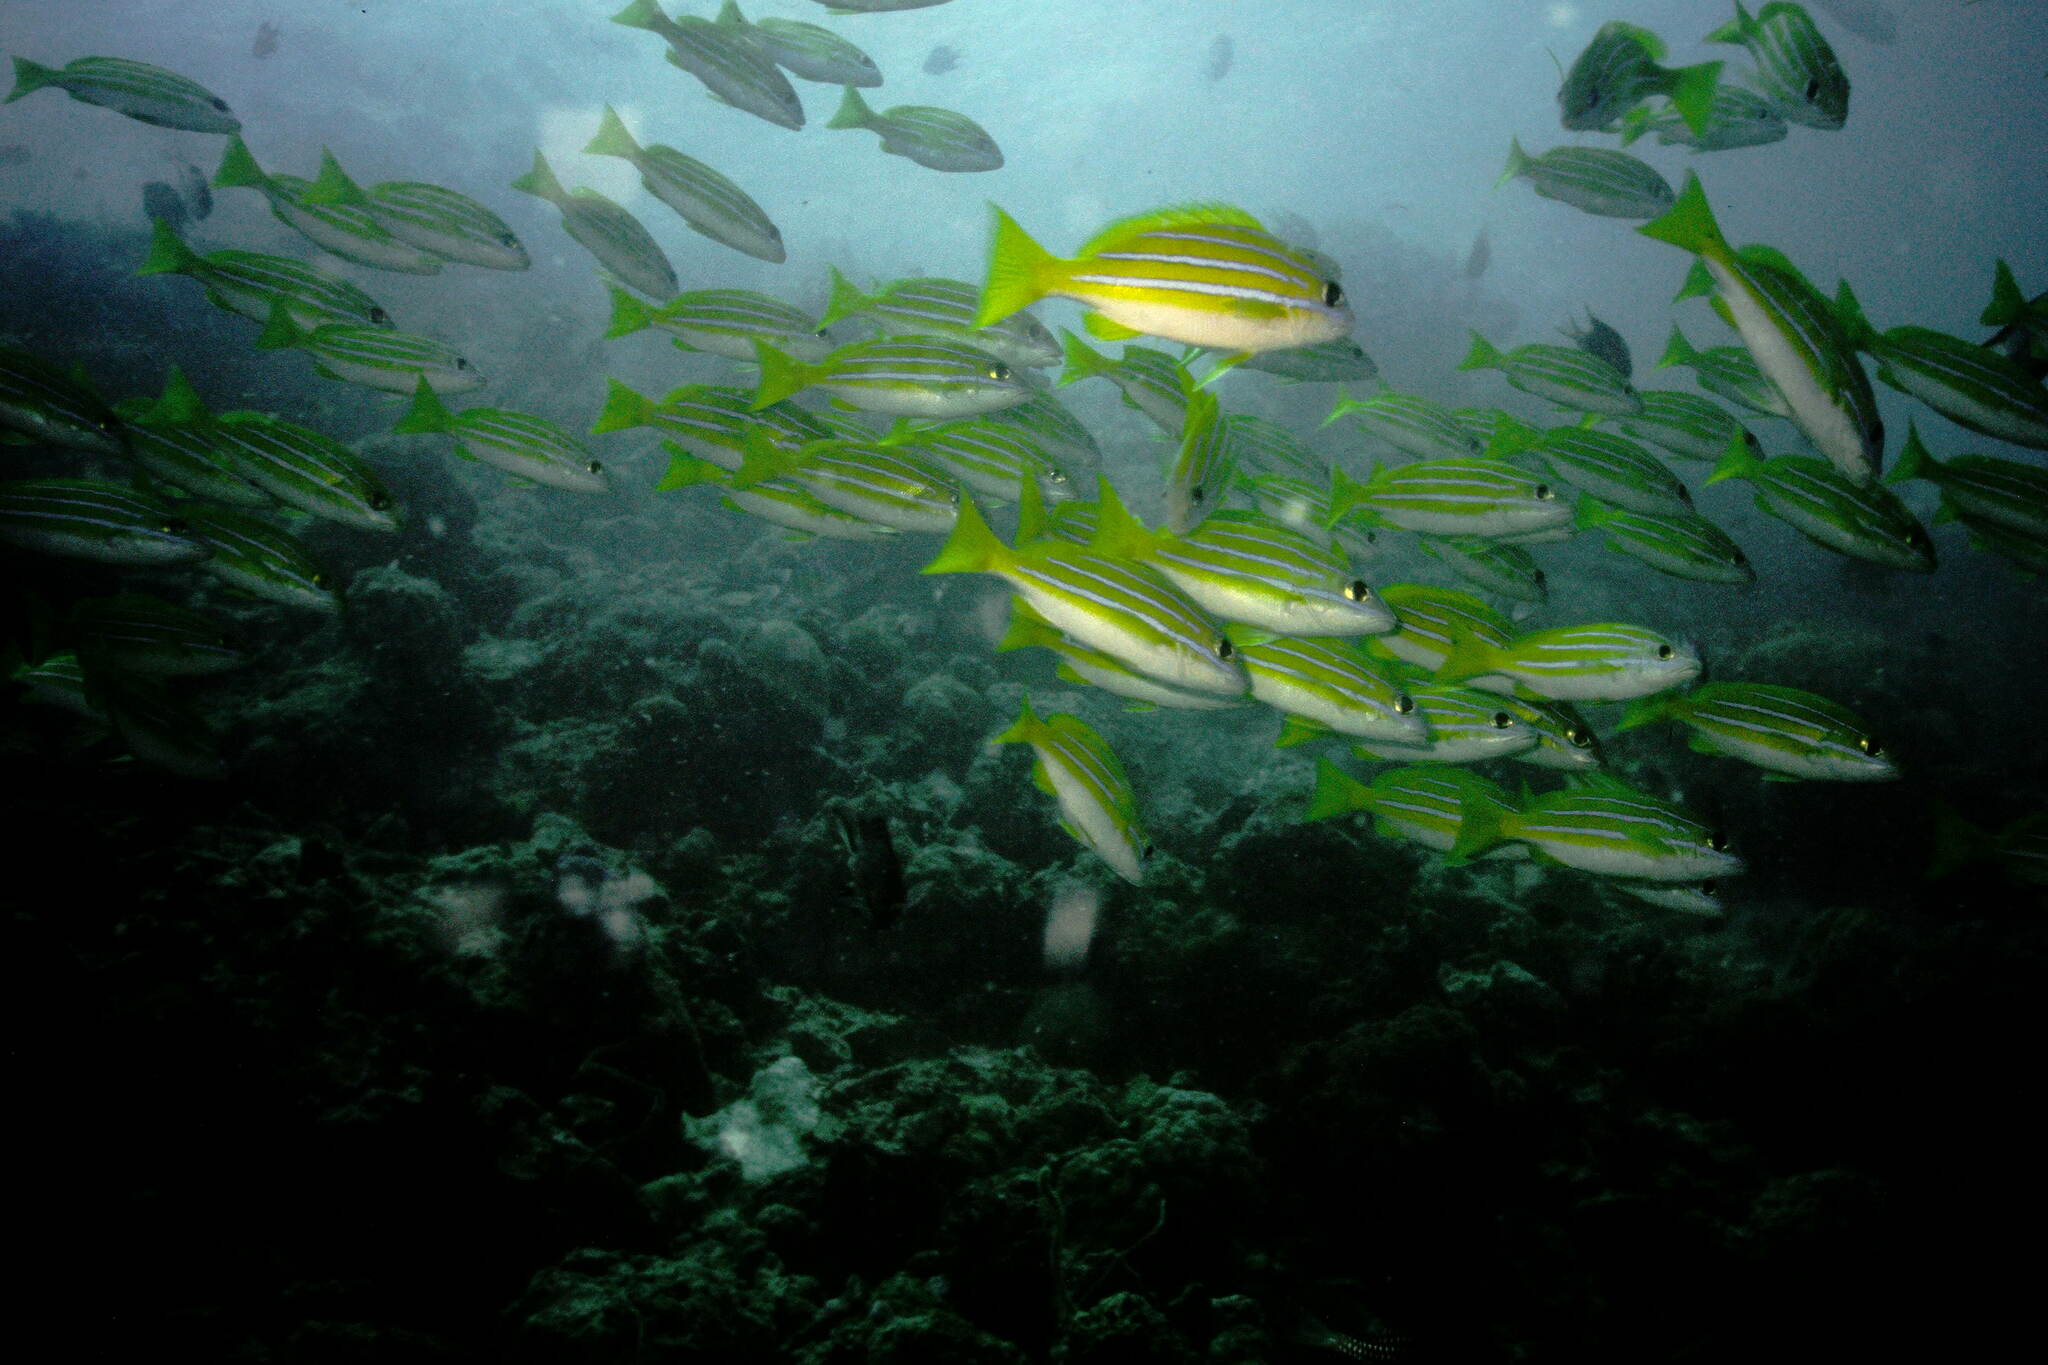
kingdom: Animalia
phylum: Chordata
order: Perciformes
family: Lutjanidae
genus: Lutjanus
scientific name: Lutjanus bengalensis
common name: Bengal snapper
